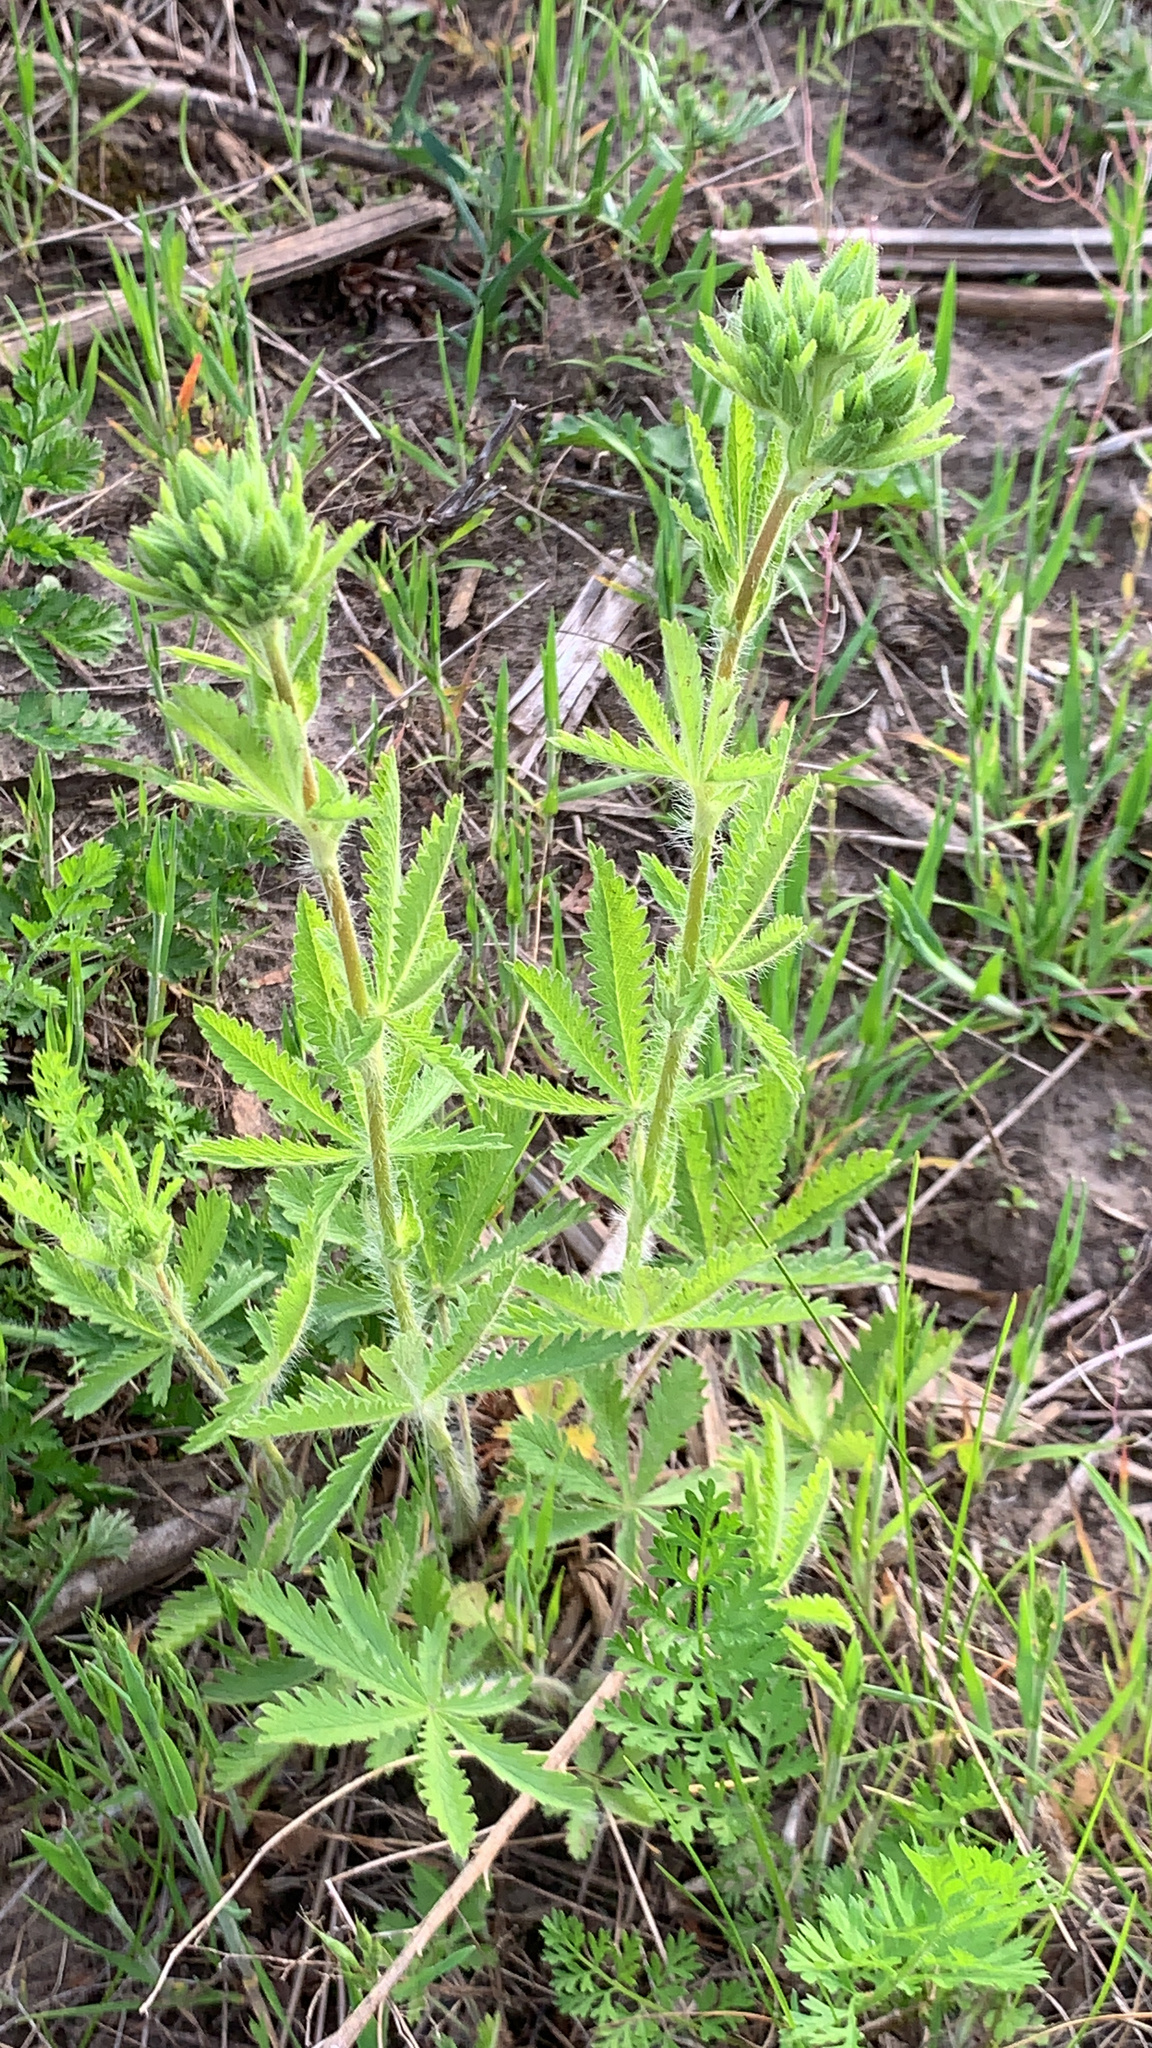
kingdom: Plantae
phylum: Tracheophyta
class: Magnoliopsida
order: Rosales
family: Rosaceae
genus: Potentilla
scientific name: Potentilla recta
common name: Sulphur cinquefoil
